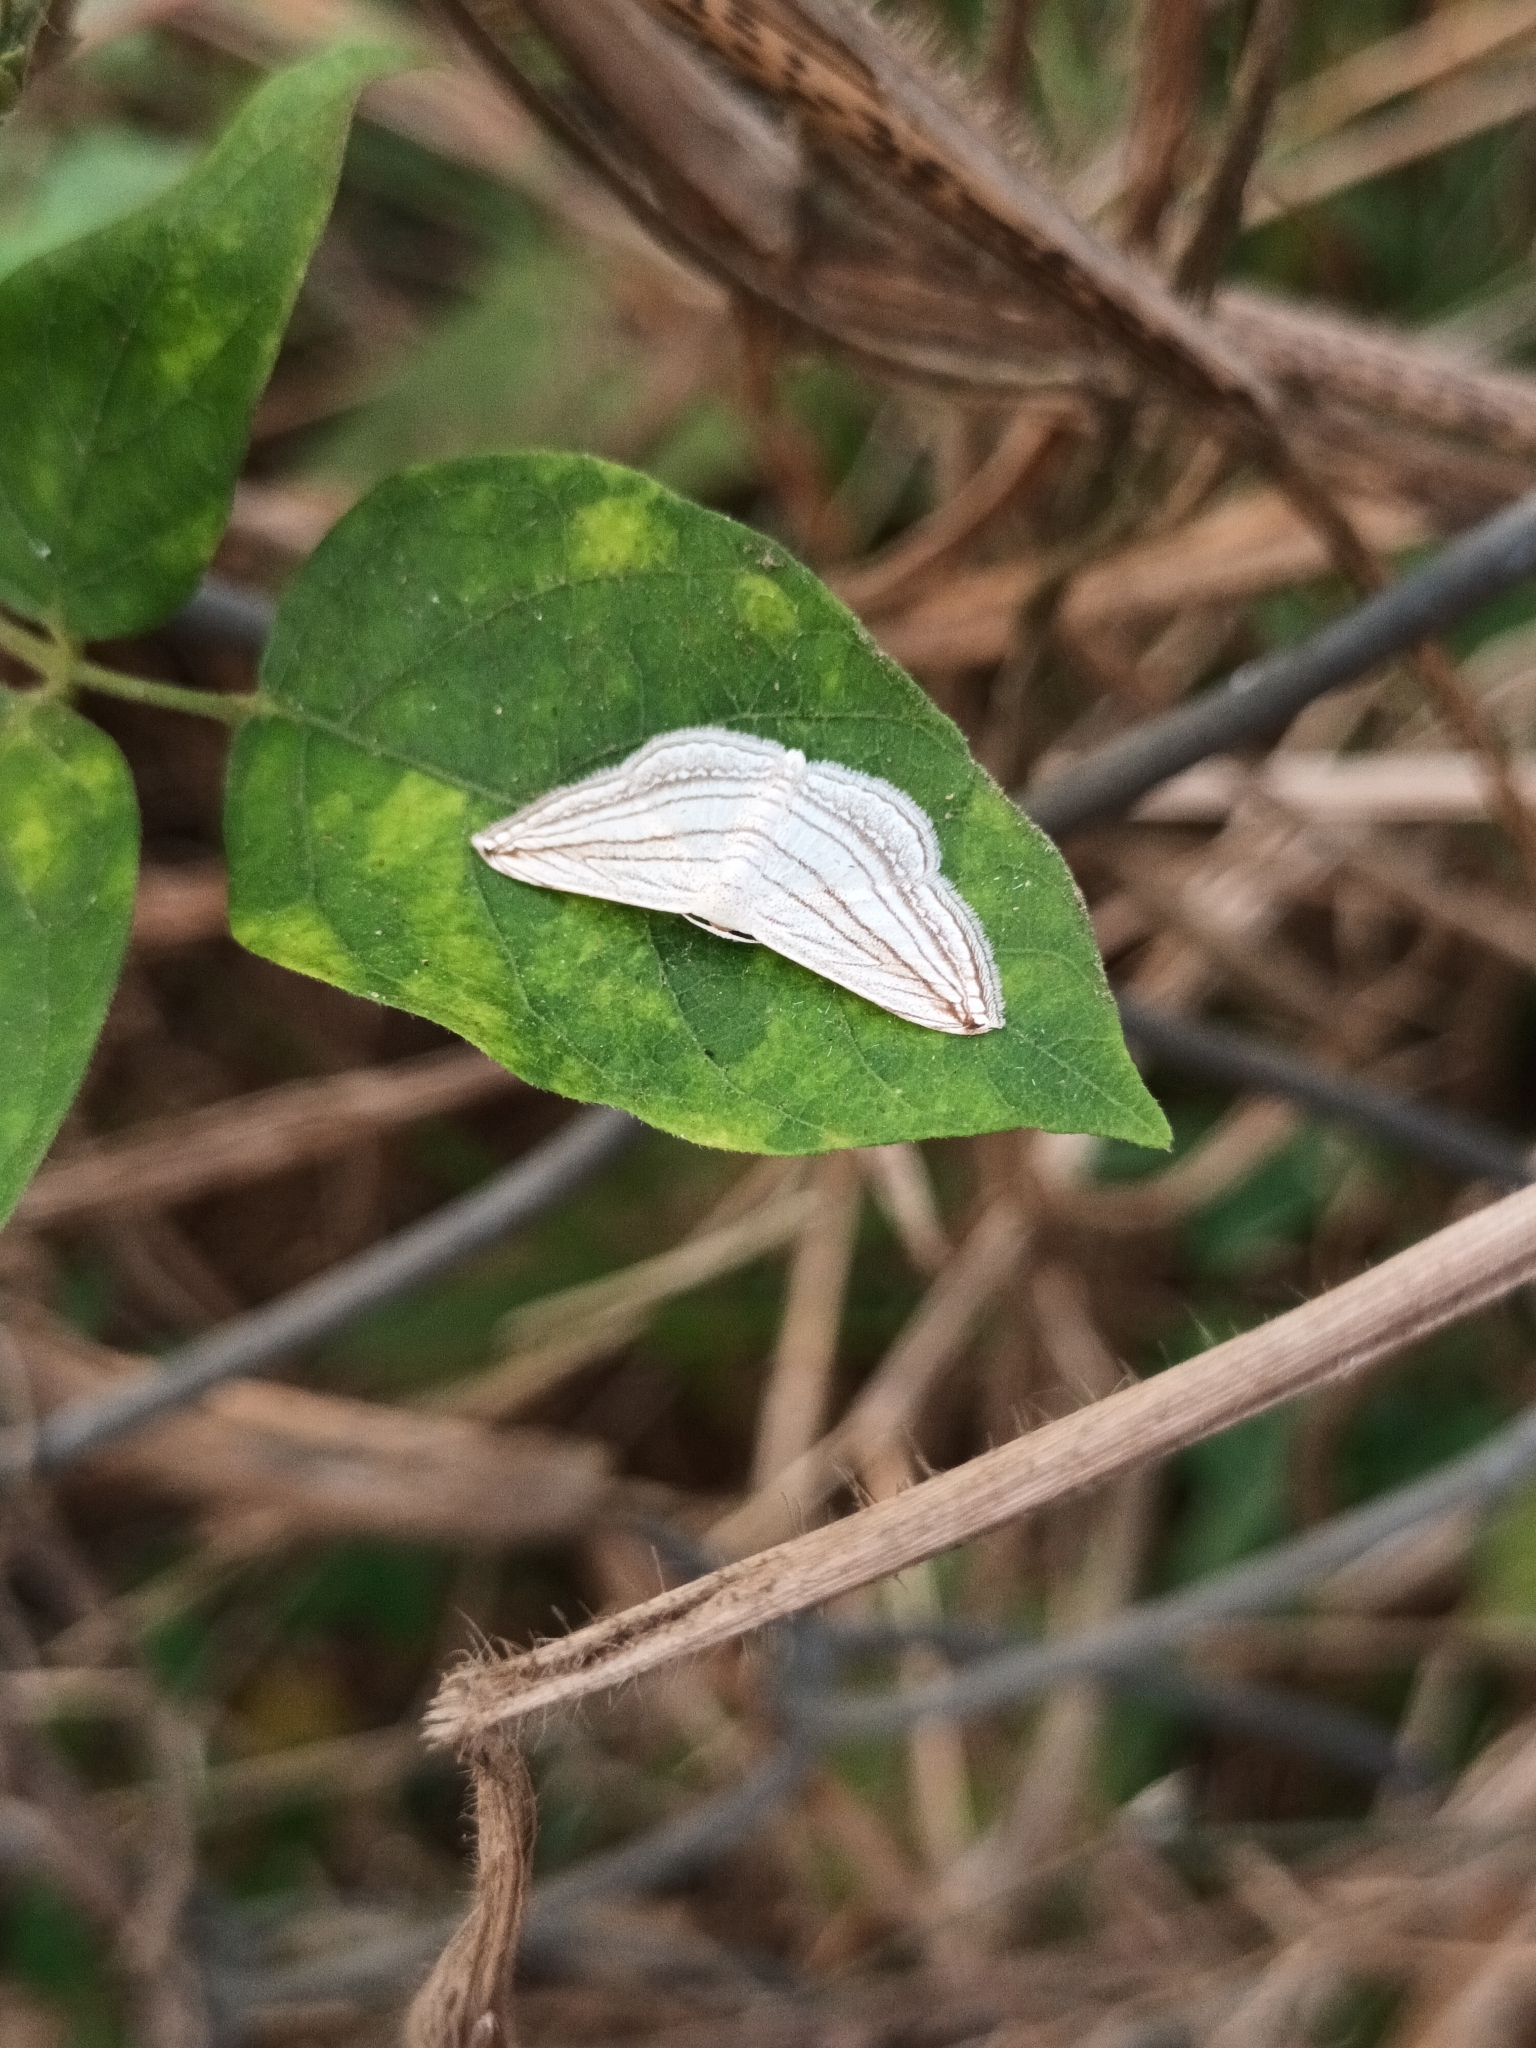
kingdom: Animalia
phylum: Arthropoda
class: Insecta
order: Lepidoptera
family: Geometridae
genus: Scopula
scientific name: Scopula opicata
